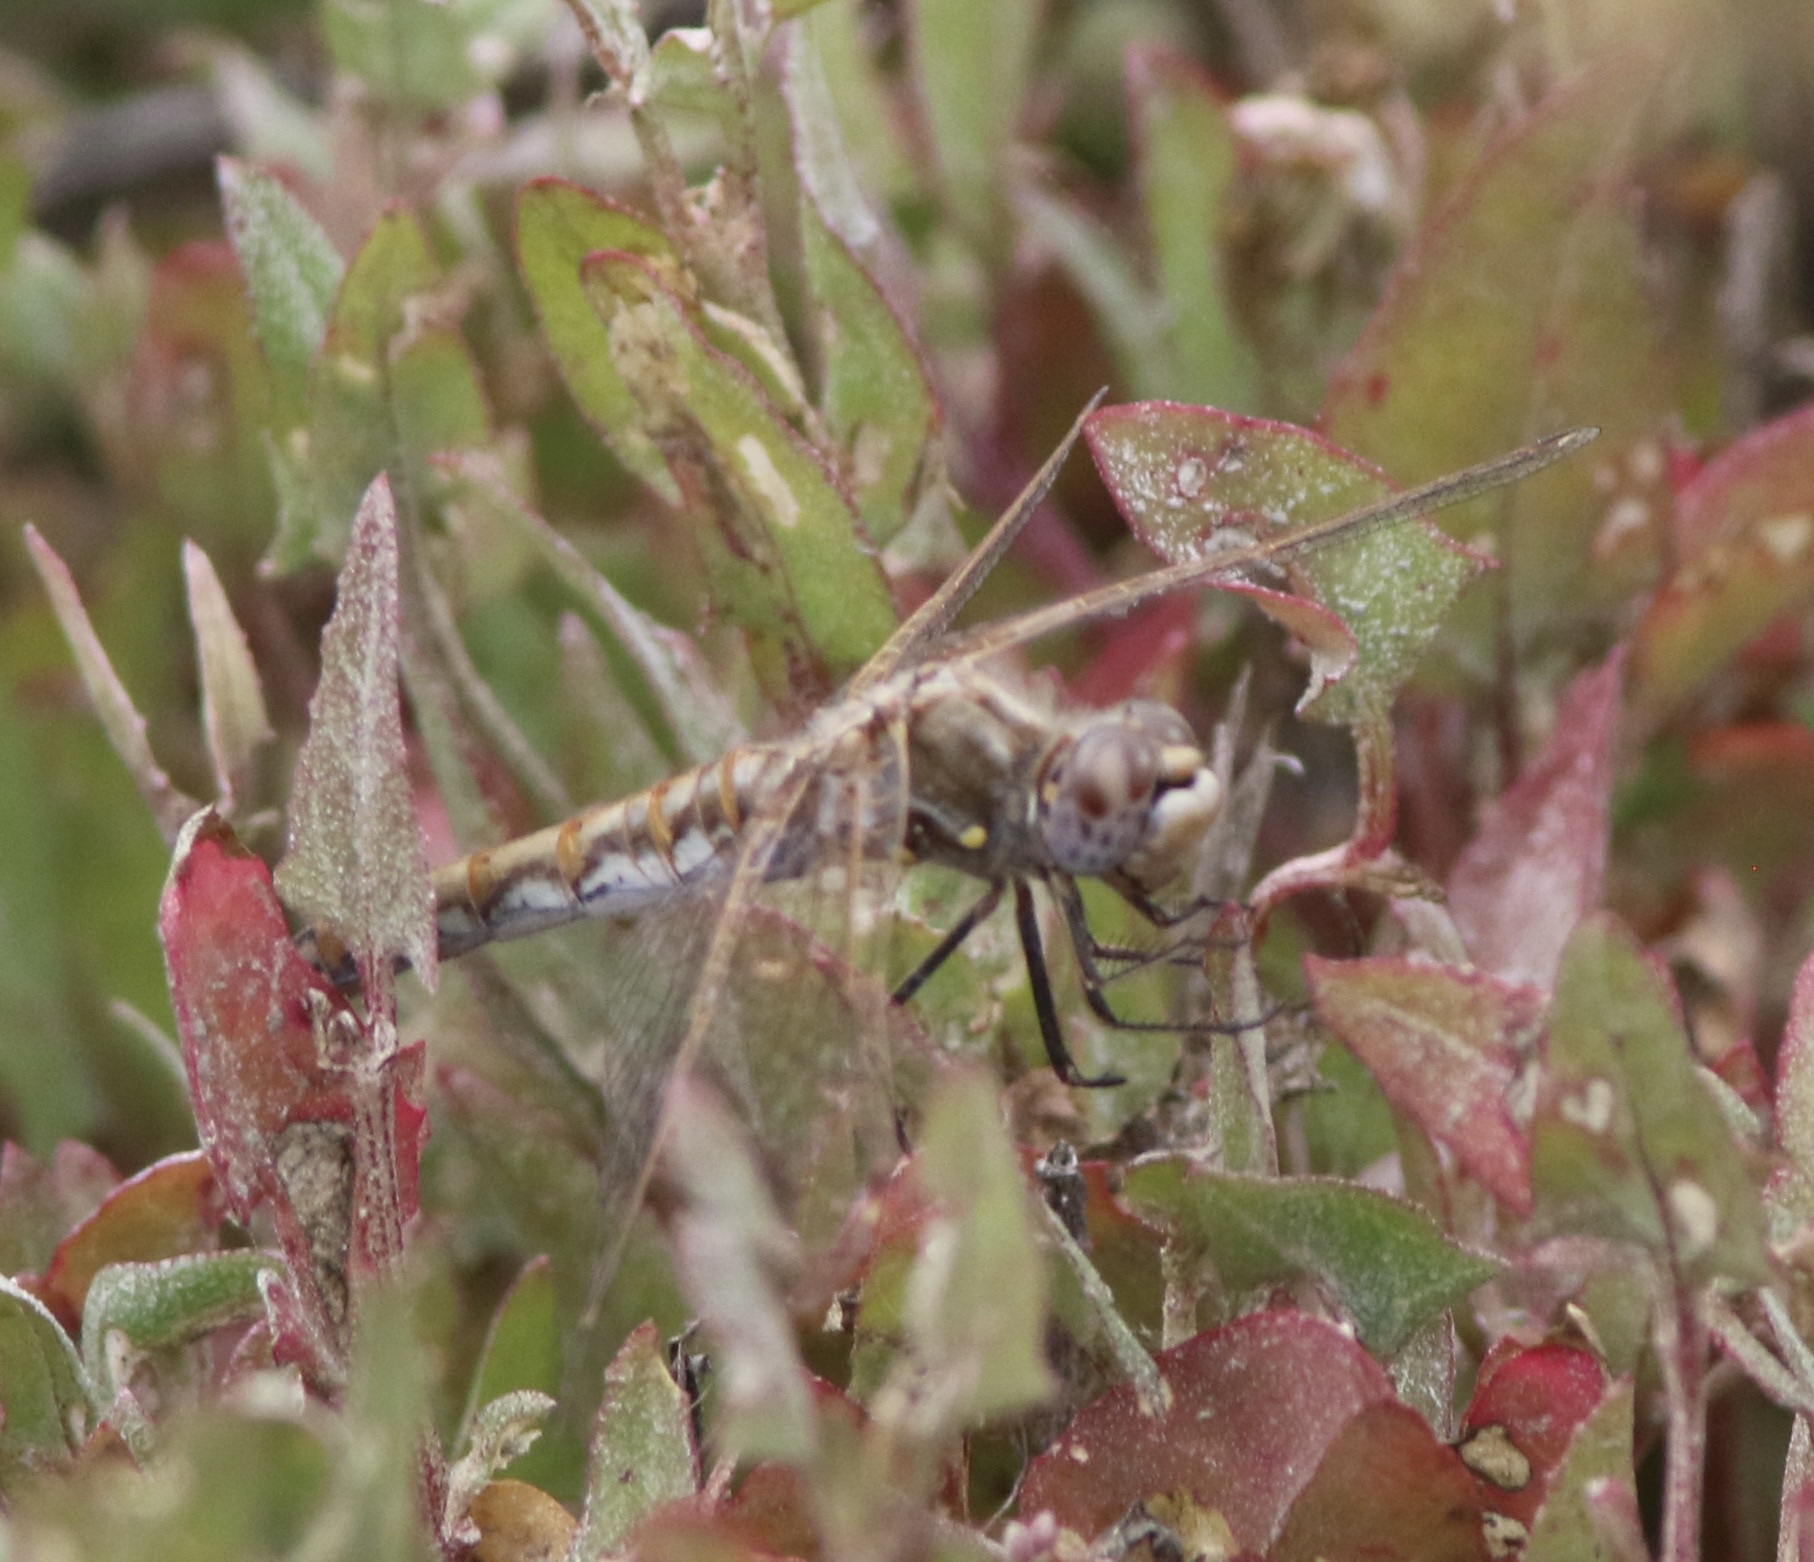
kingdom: Animalia
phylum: Arthropoda
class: Insecta
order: Odonata
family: Libellulidae
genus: Sympetrum
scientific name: Sympetrum corruptum
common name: Variegated meadowhawk
